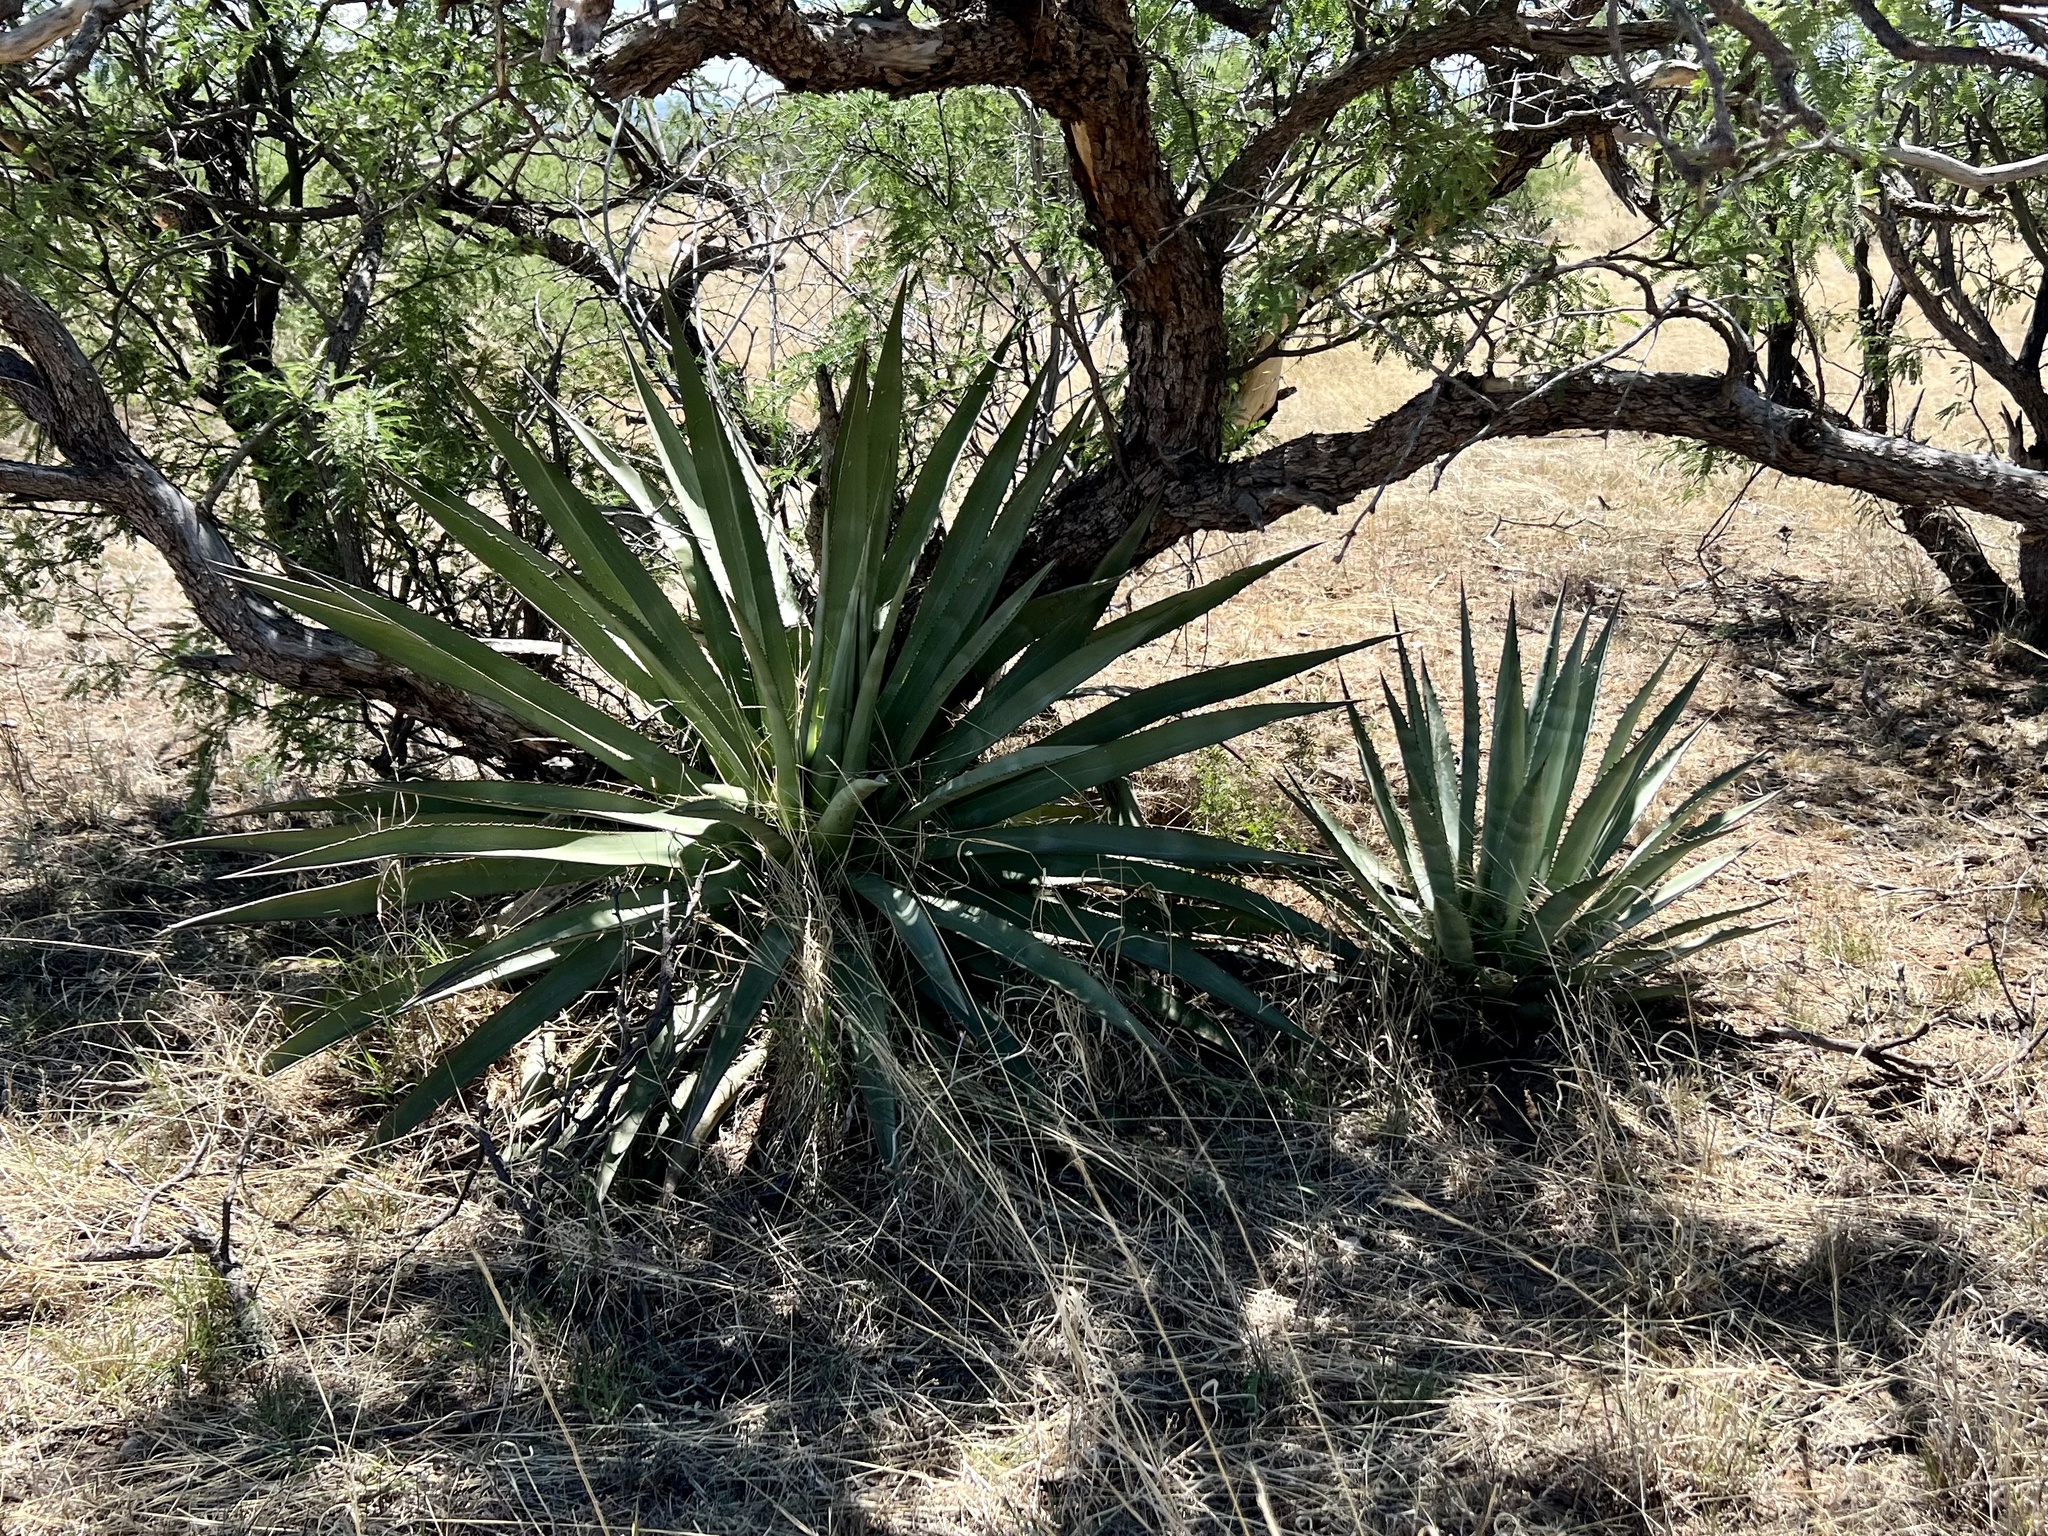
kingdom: Plantae
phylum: Tracheophyta
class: Liliopsida
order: Asparagales
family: Asparagaceae
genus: Agave
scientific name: Agave palmeri
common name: Palmer agave
